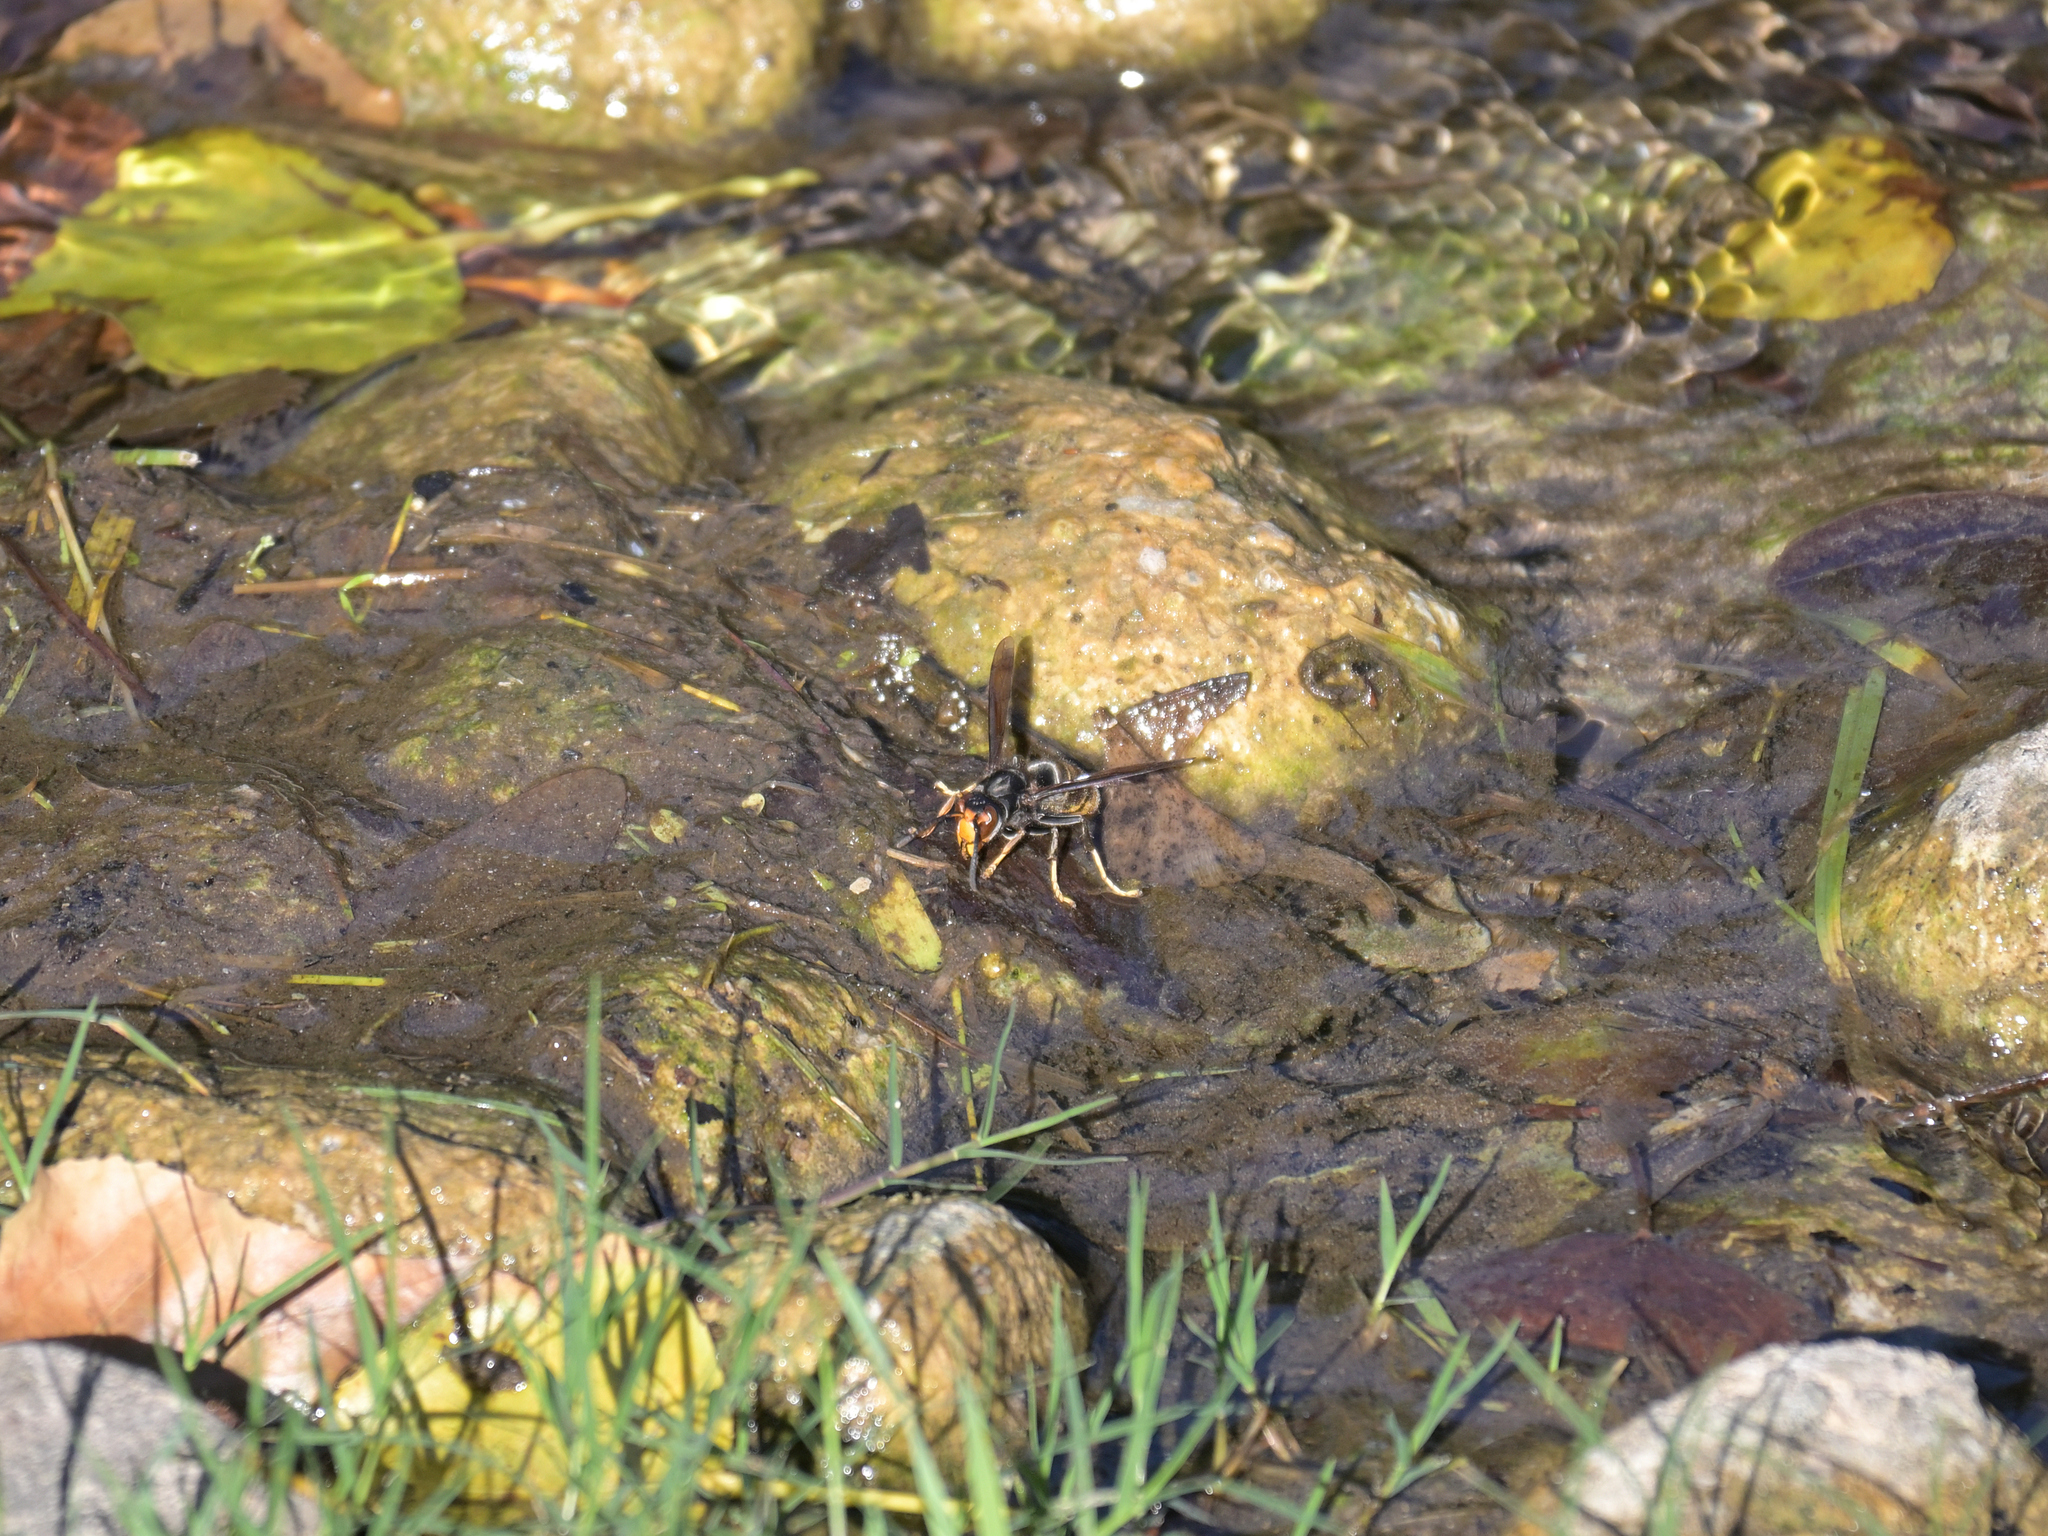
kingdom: Animalia
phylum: Arthropoda
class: Insecta
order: Hymenoptera
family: Vespidae
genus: Vespa
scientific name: Vespa velutina
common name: Asian hornet
